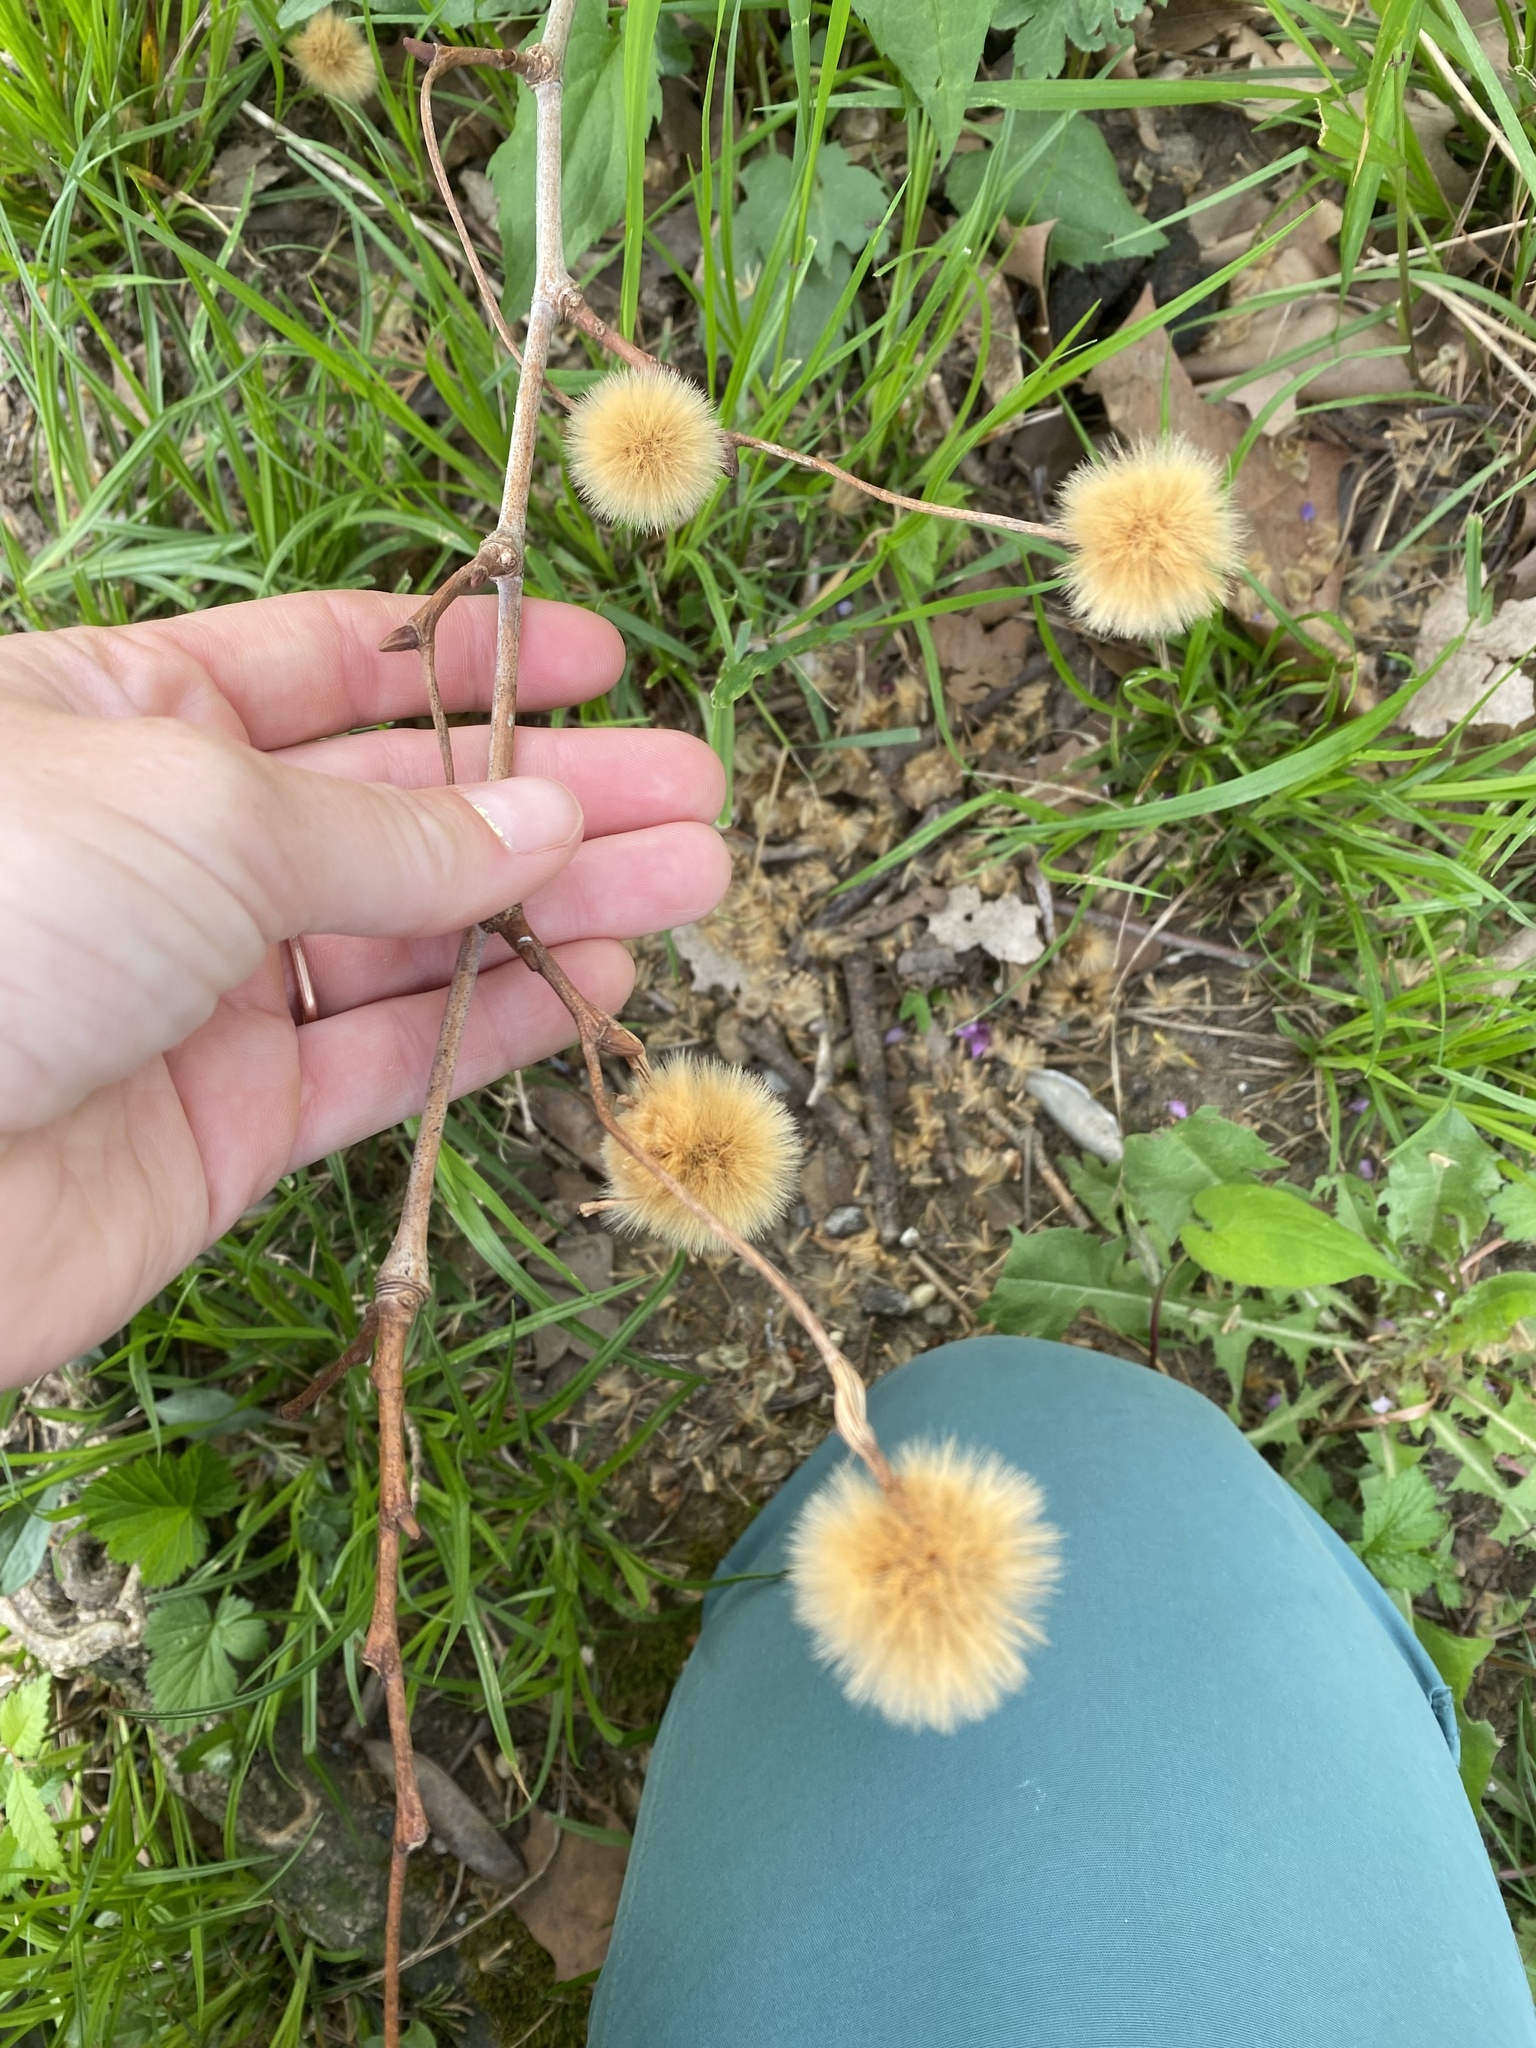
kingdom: Plantae
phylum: Tracheophyta
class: Magnoliopsida
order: Proteales
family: Platanaceae
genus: Platanus
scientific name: Platanus occidentalis
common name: American sycamore
